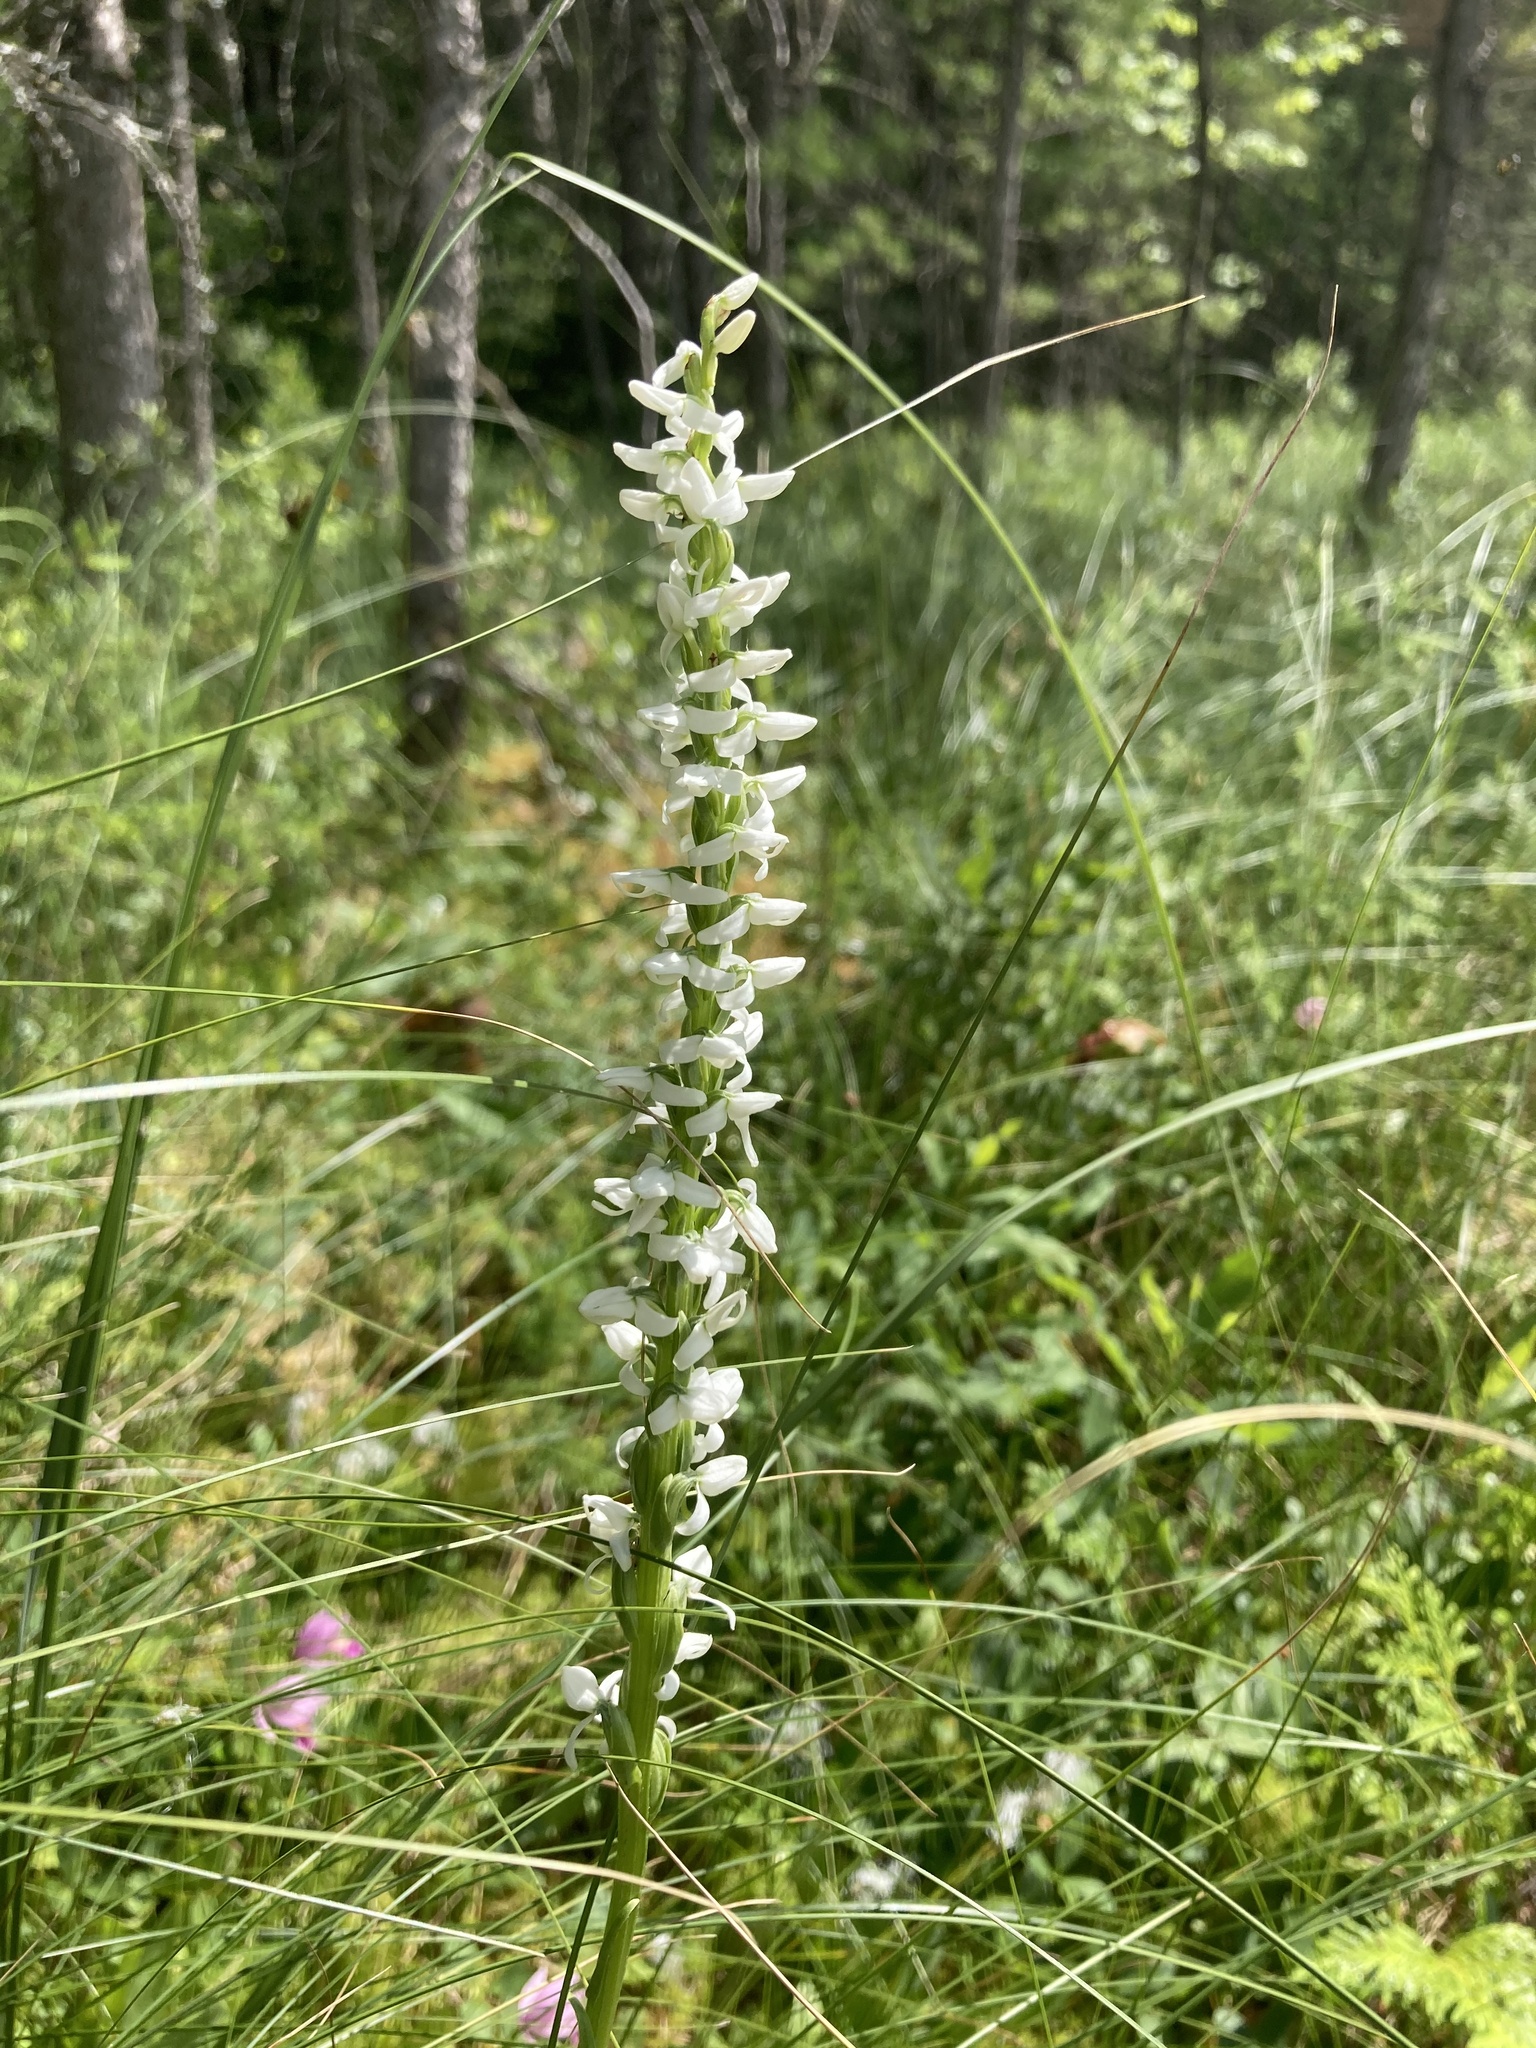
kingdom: Plantae
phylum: Tracheophyta
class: Liliopsida
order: Asparagales
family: Orchidaceae
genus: Platanthera
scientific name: Platanthera dilatata
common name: Bog candles
